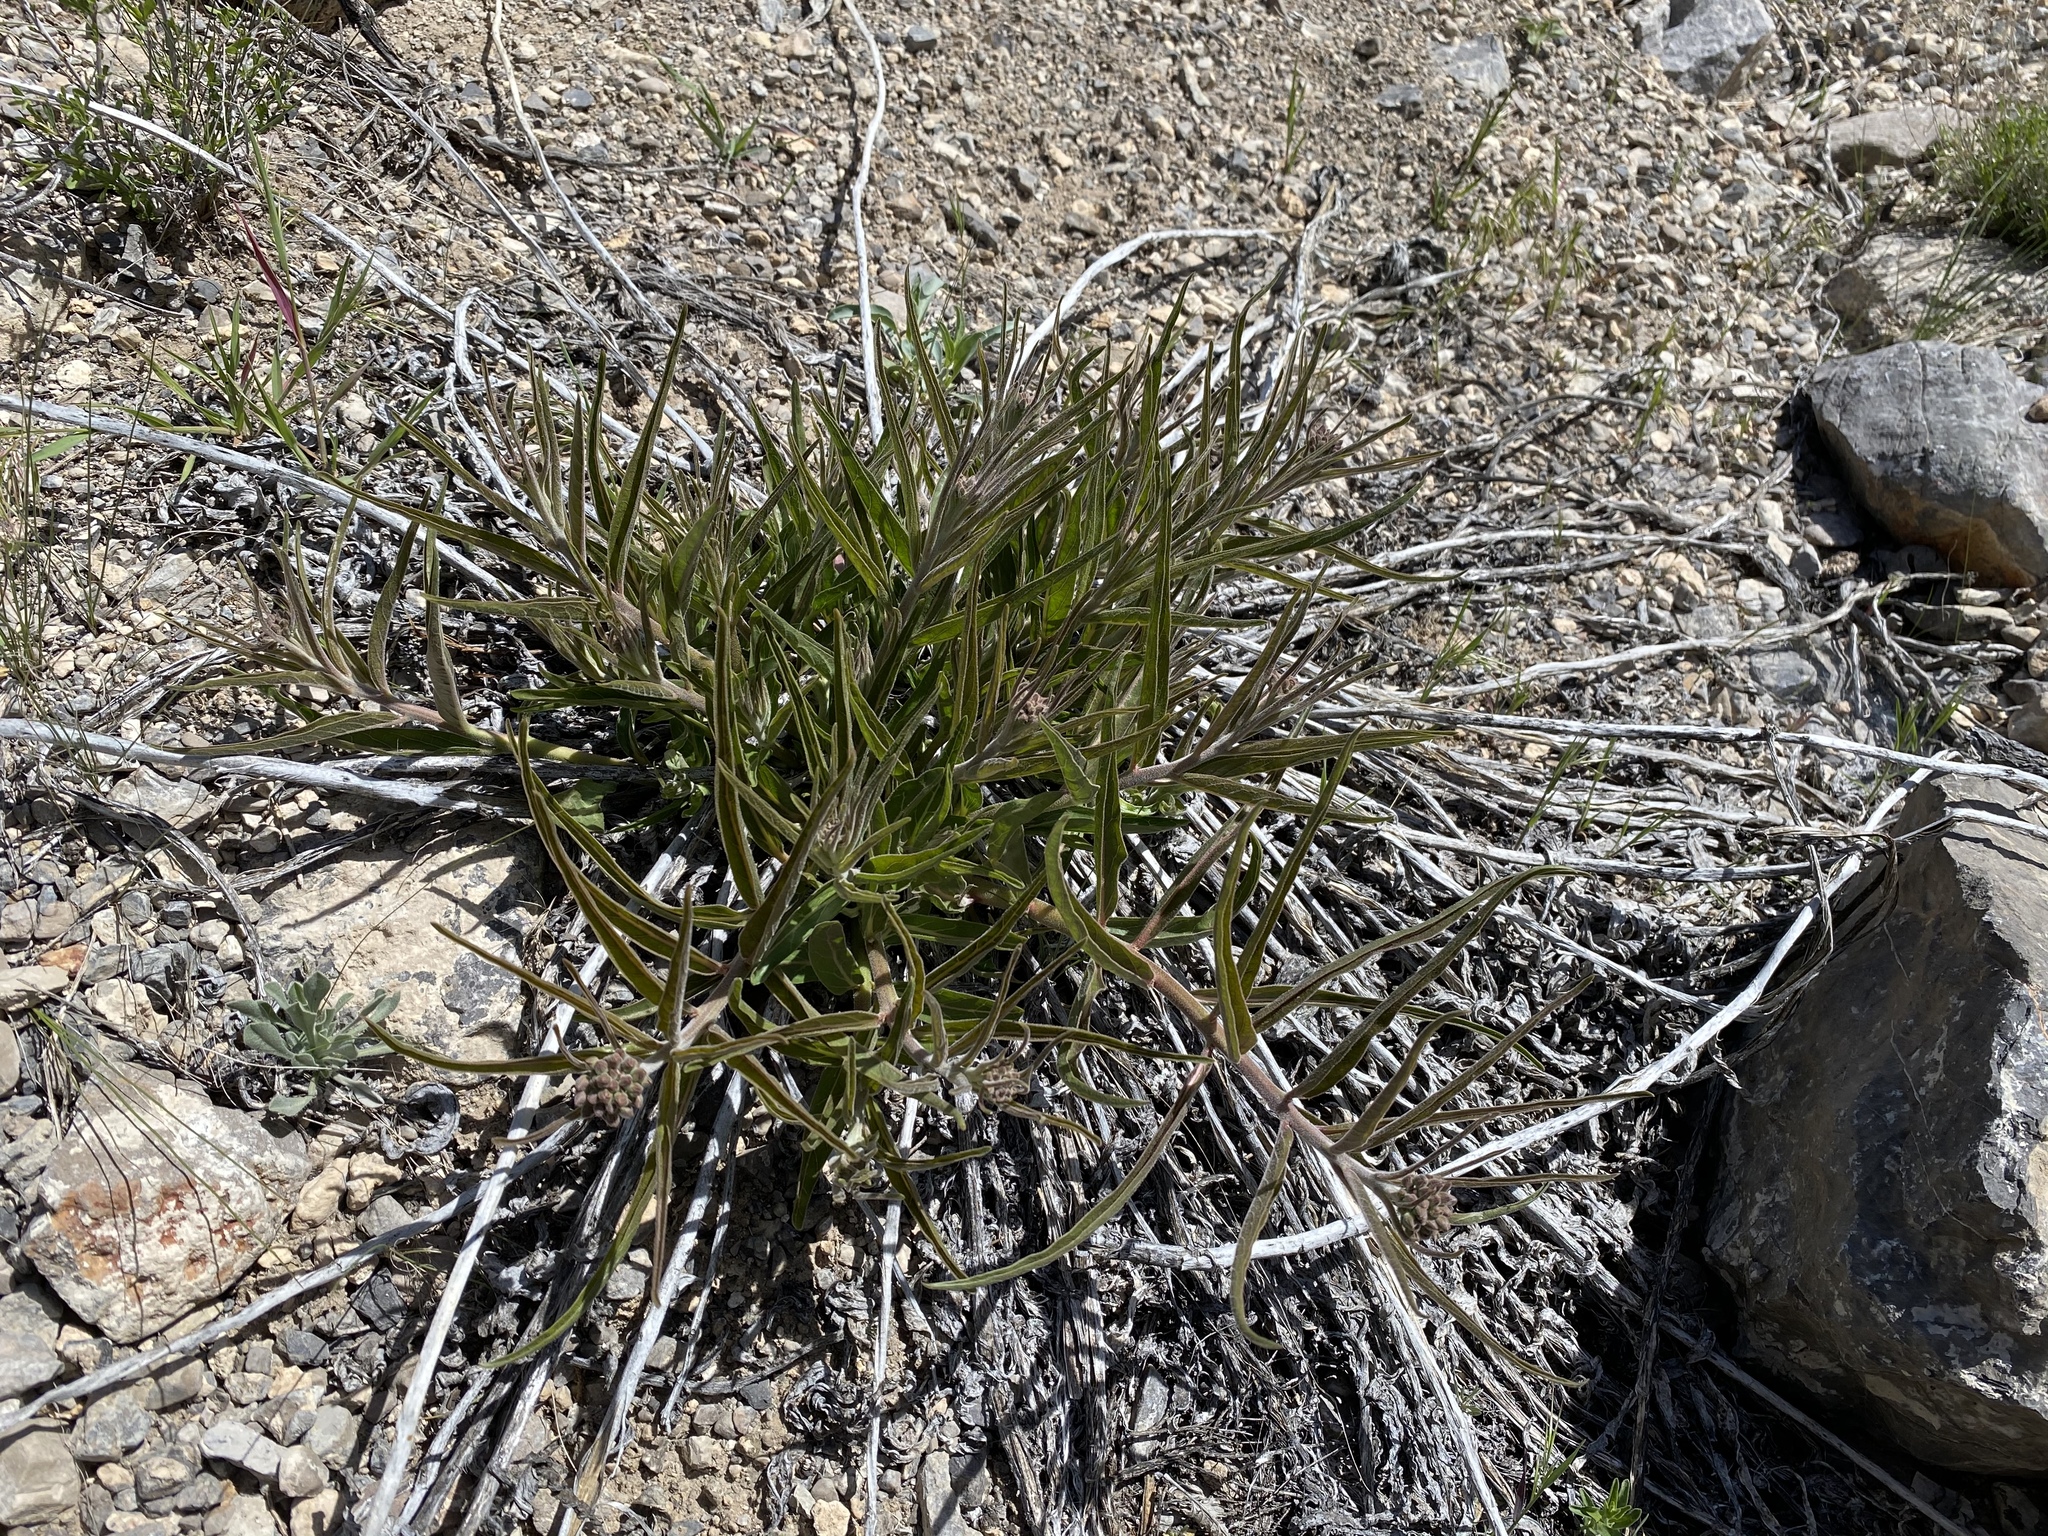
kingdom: Plantae
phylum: Tracheophyta
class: Magnoliopsida
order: Gentianales
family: Apocynaceae
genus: Asclepias
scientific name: Asclepias asperula
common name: Antelope horns
